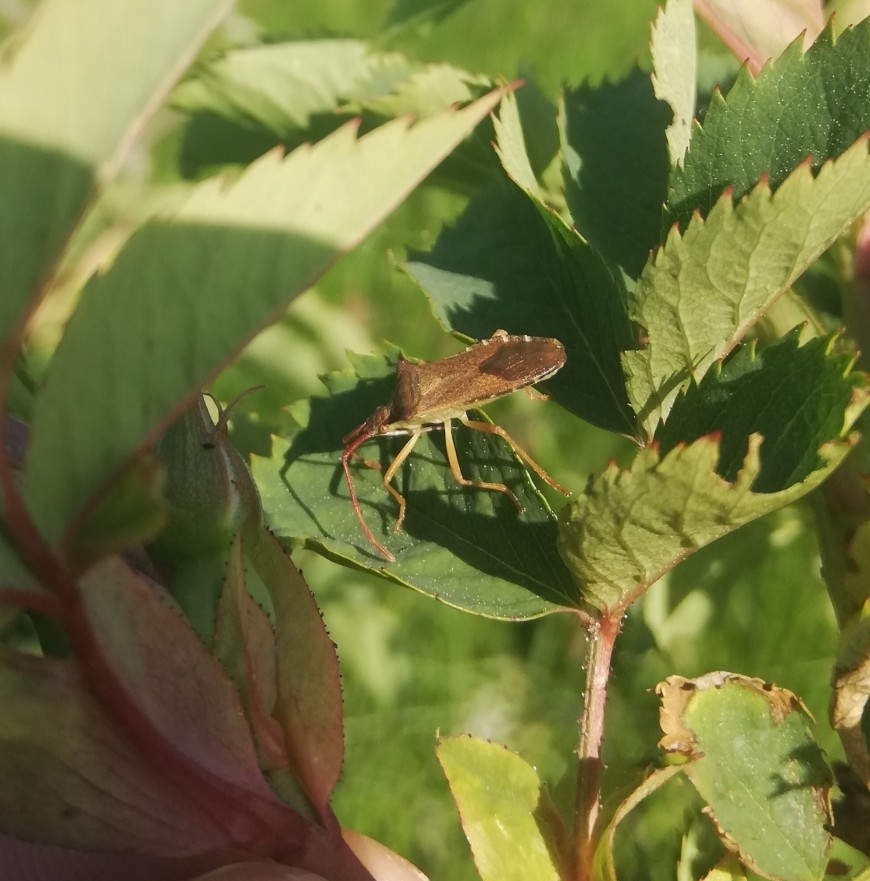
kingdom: Animalia
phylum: Arthropoda
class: Insecta
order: Hemiptera
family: Coreidae
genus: Gonocerus
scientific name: Gonocerus acuteangulatus
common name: Box bug
